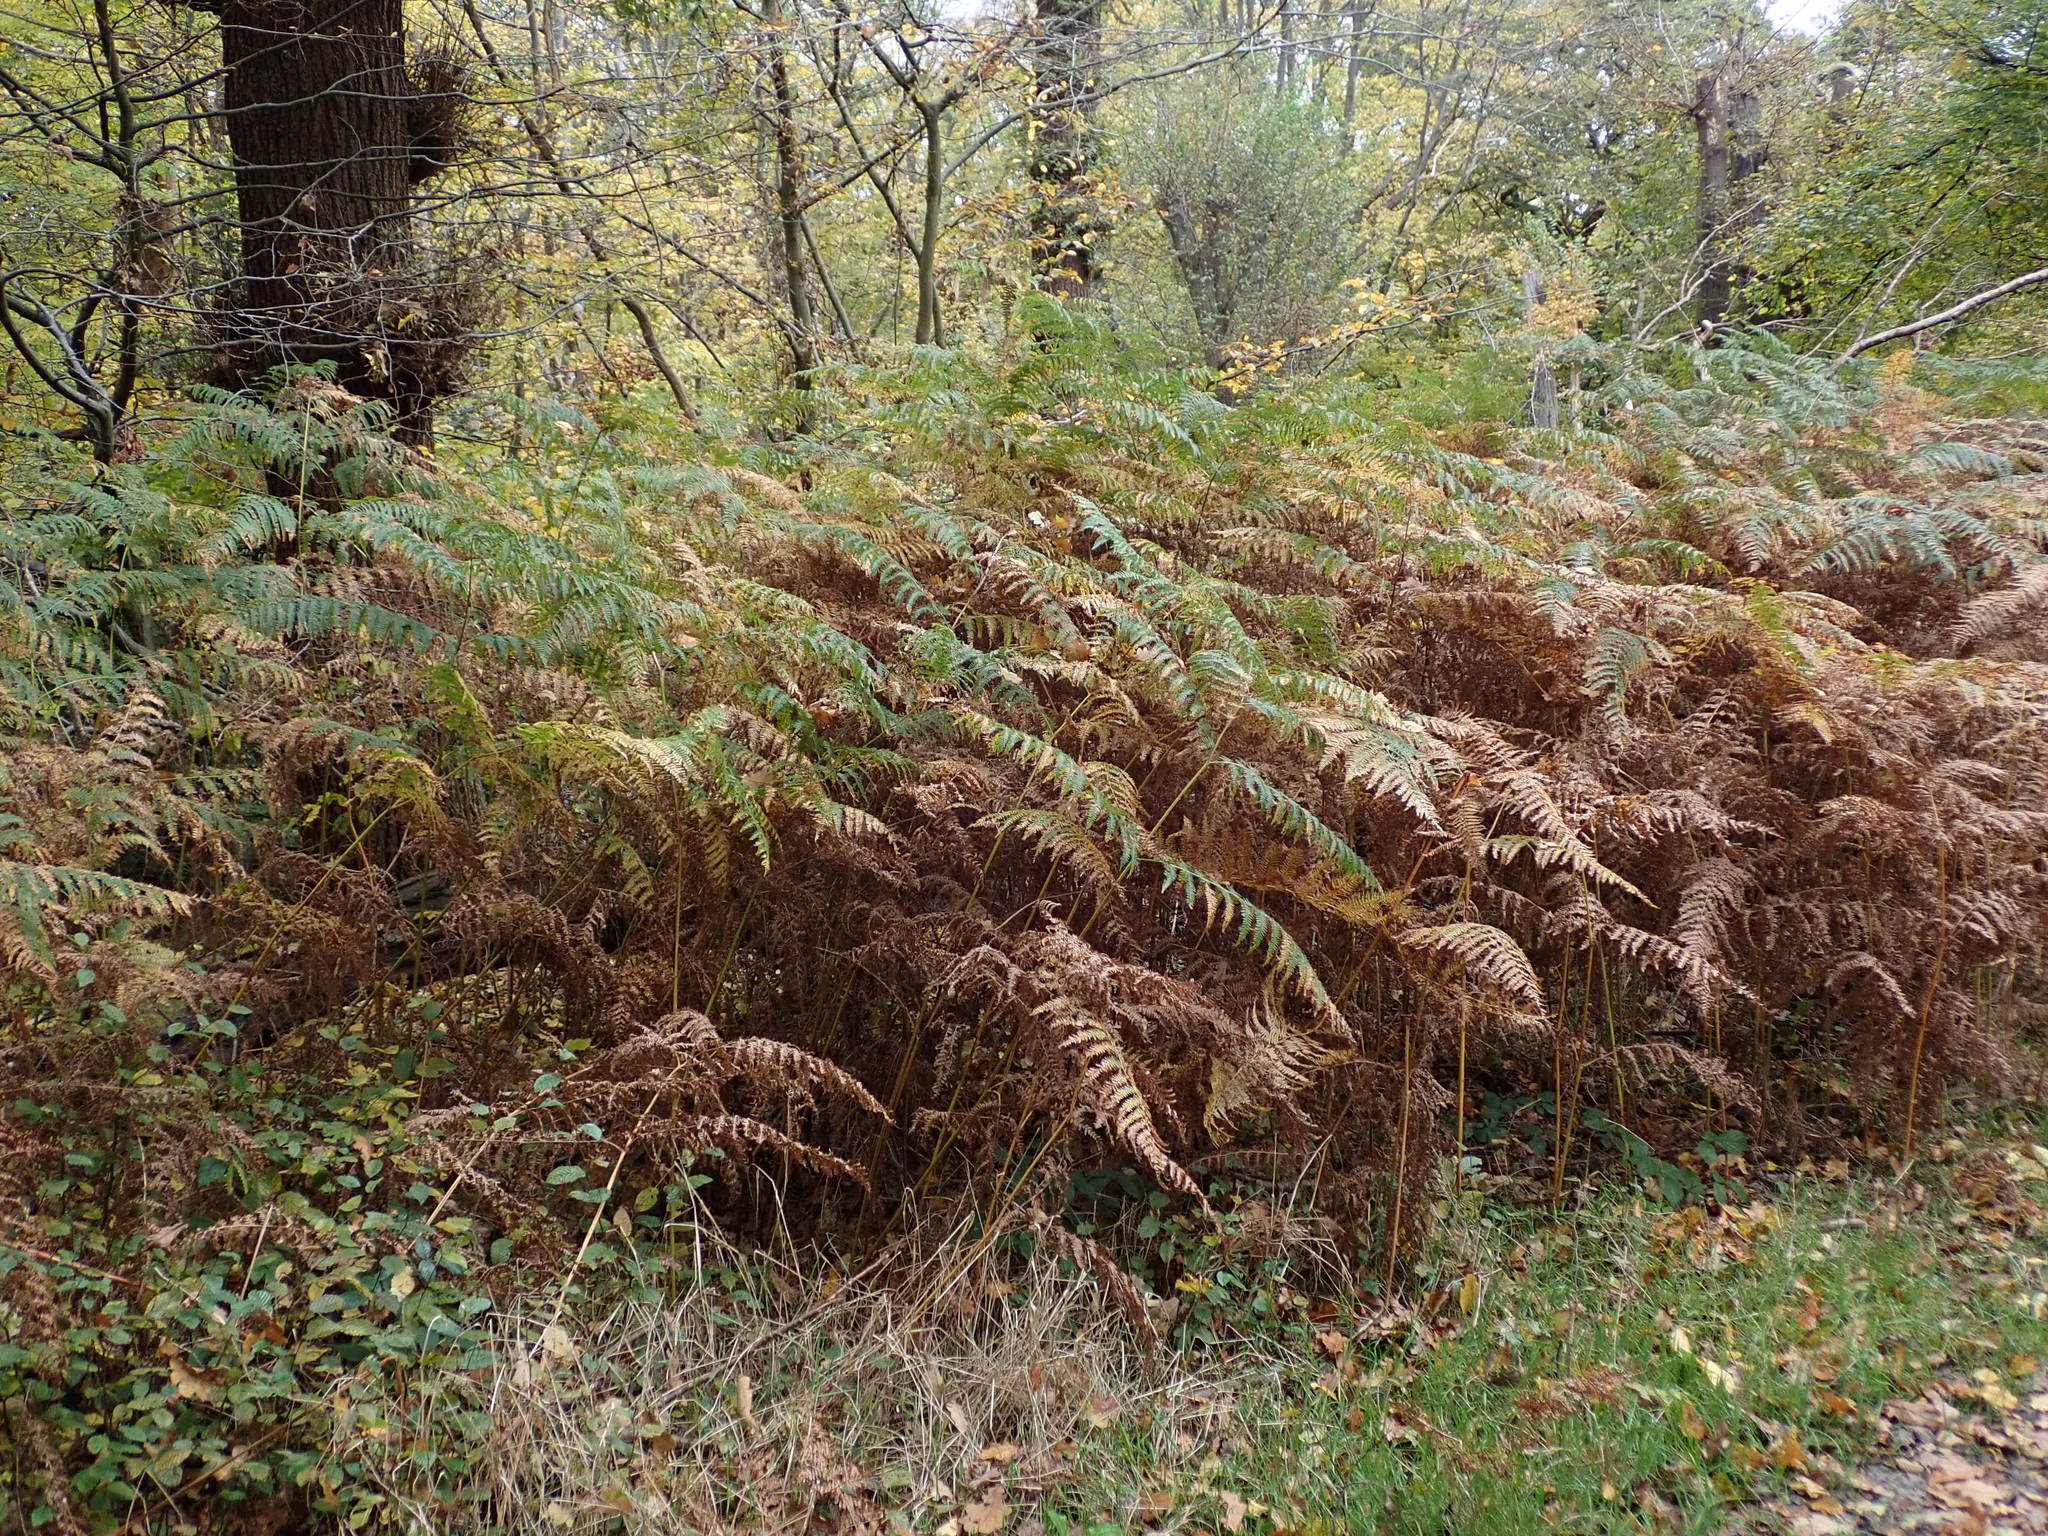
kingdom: Plantae
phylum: Tracheophyta
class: Polypodiopsida
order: Polypodiales
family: Dennstaedtiaceae
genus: Pteridium
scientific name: Pteridium aquilinum
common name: Bracken
